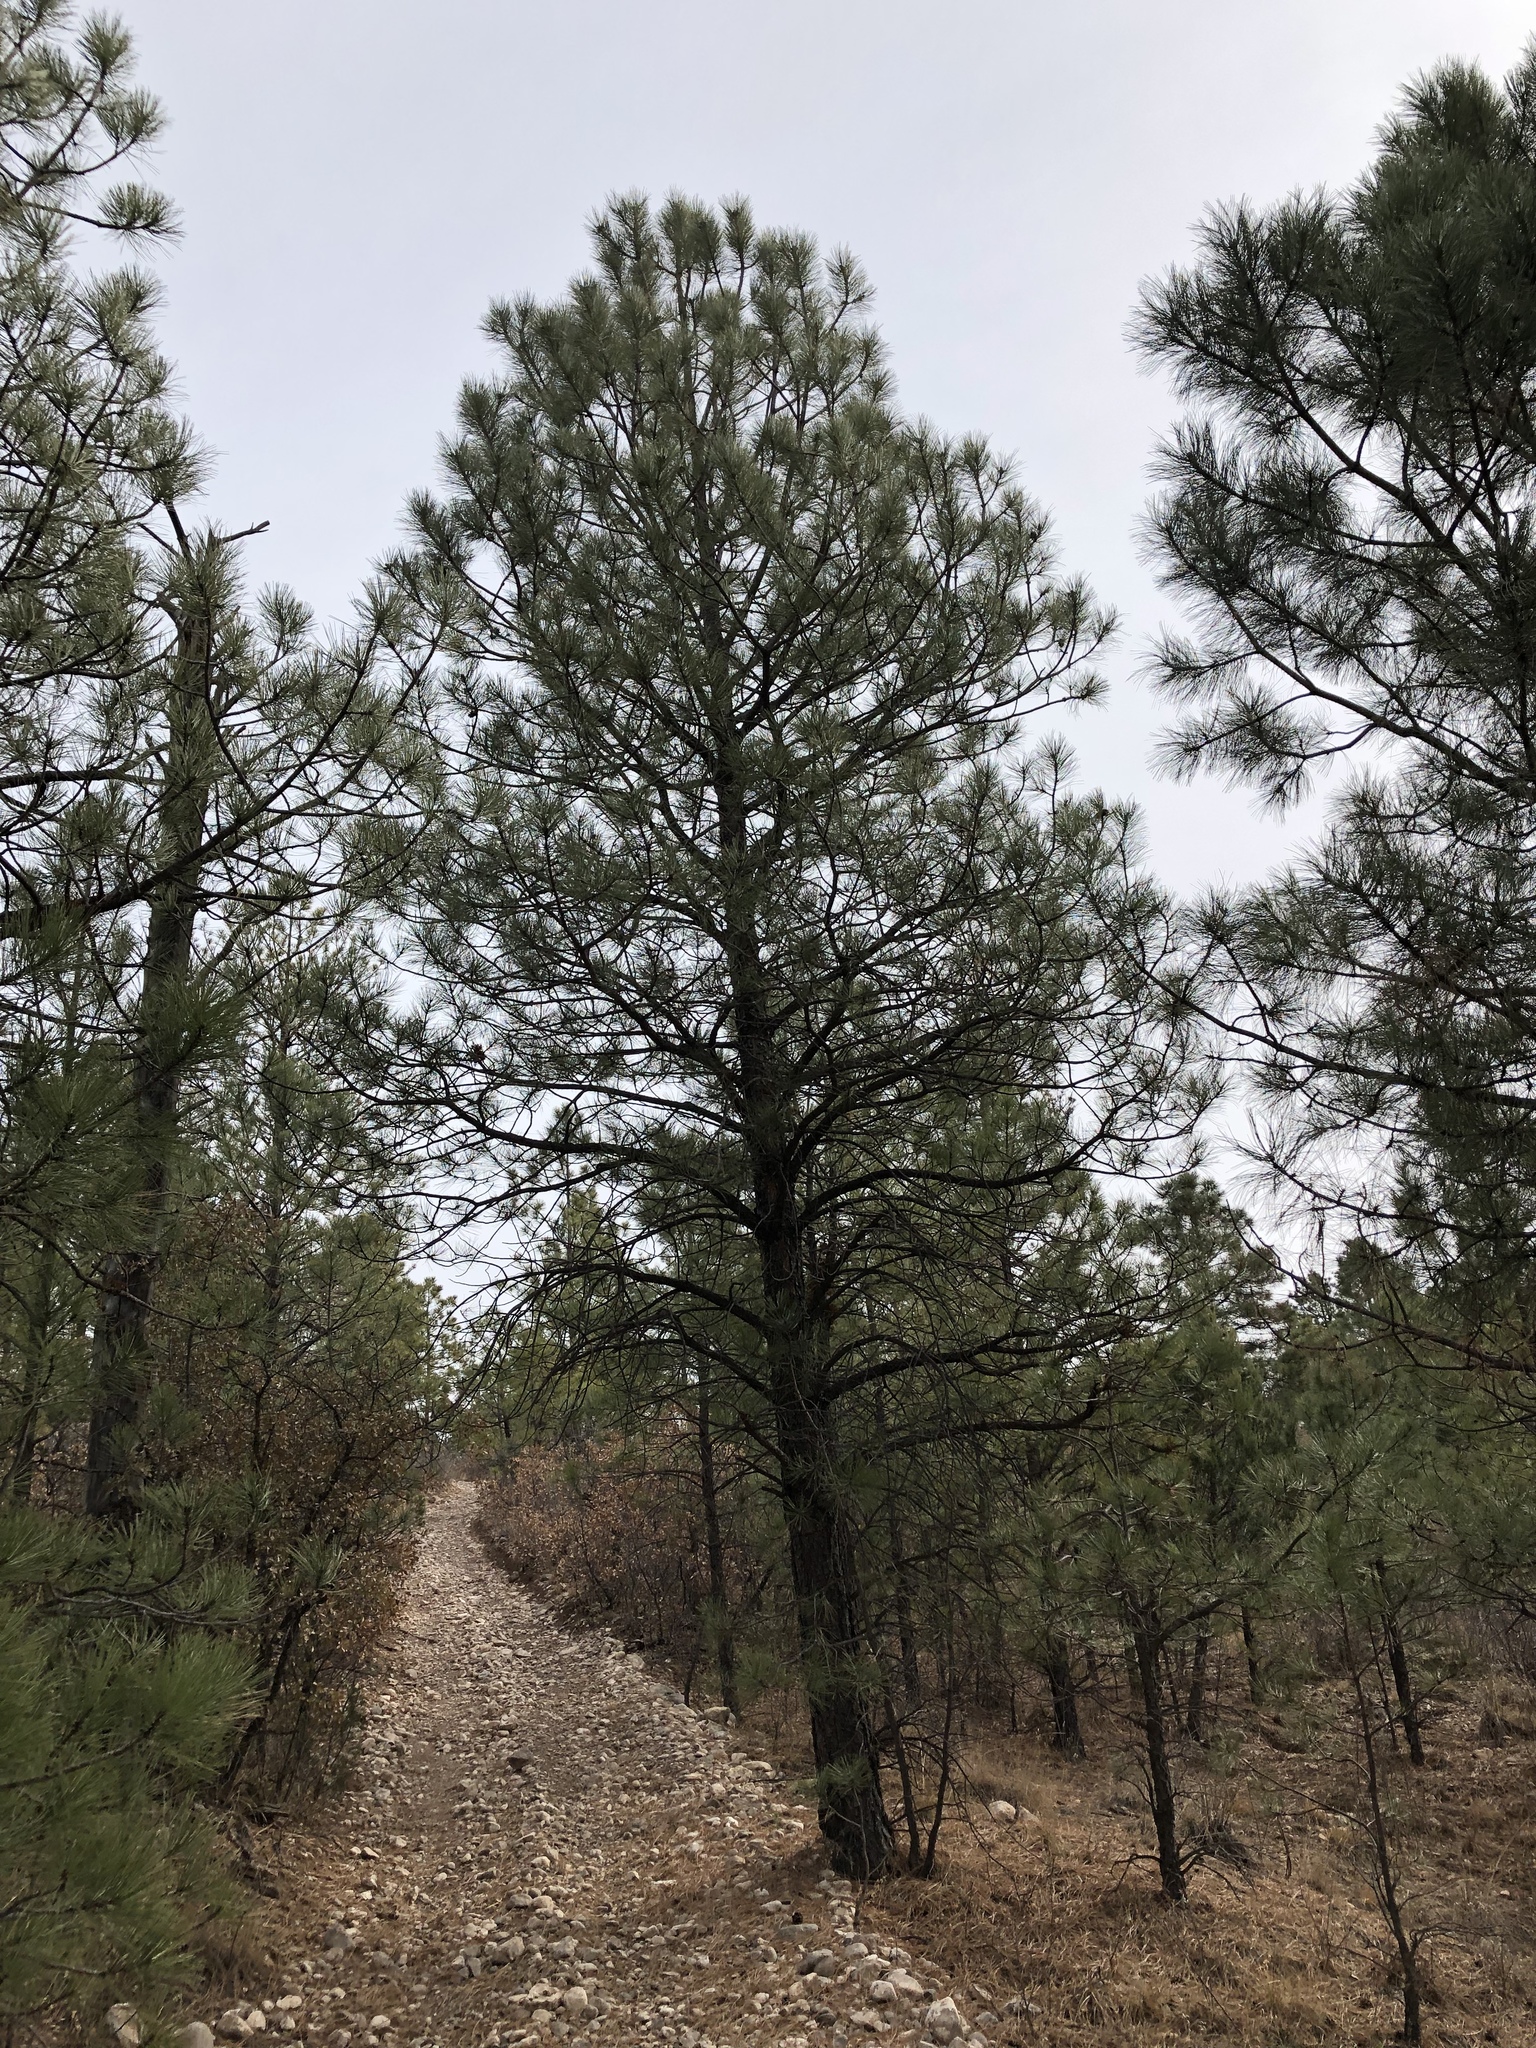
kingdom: Plantae
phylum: Tracheophyta
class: Pinopsida
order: Pinales
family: Pinaceae
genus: Pinus
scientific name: Pinus ponderosa
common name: Western yellow-pine
